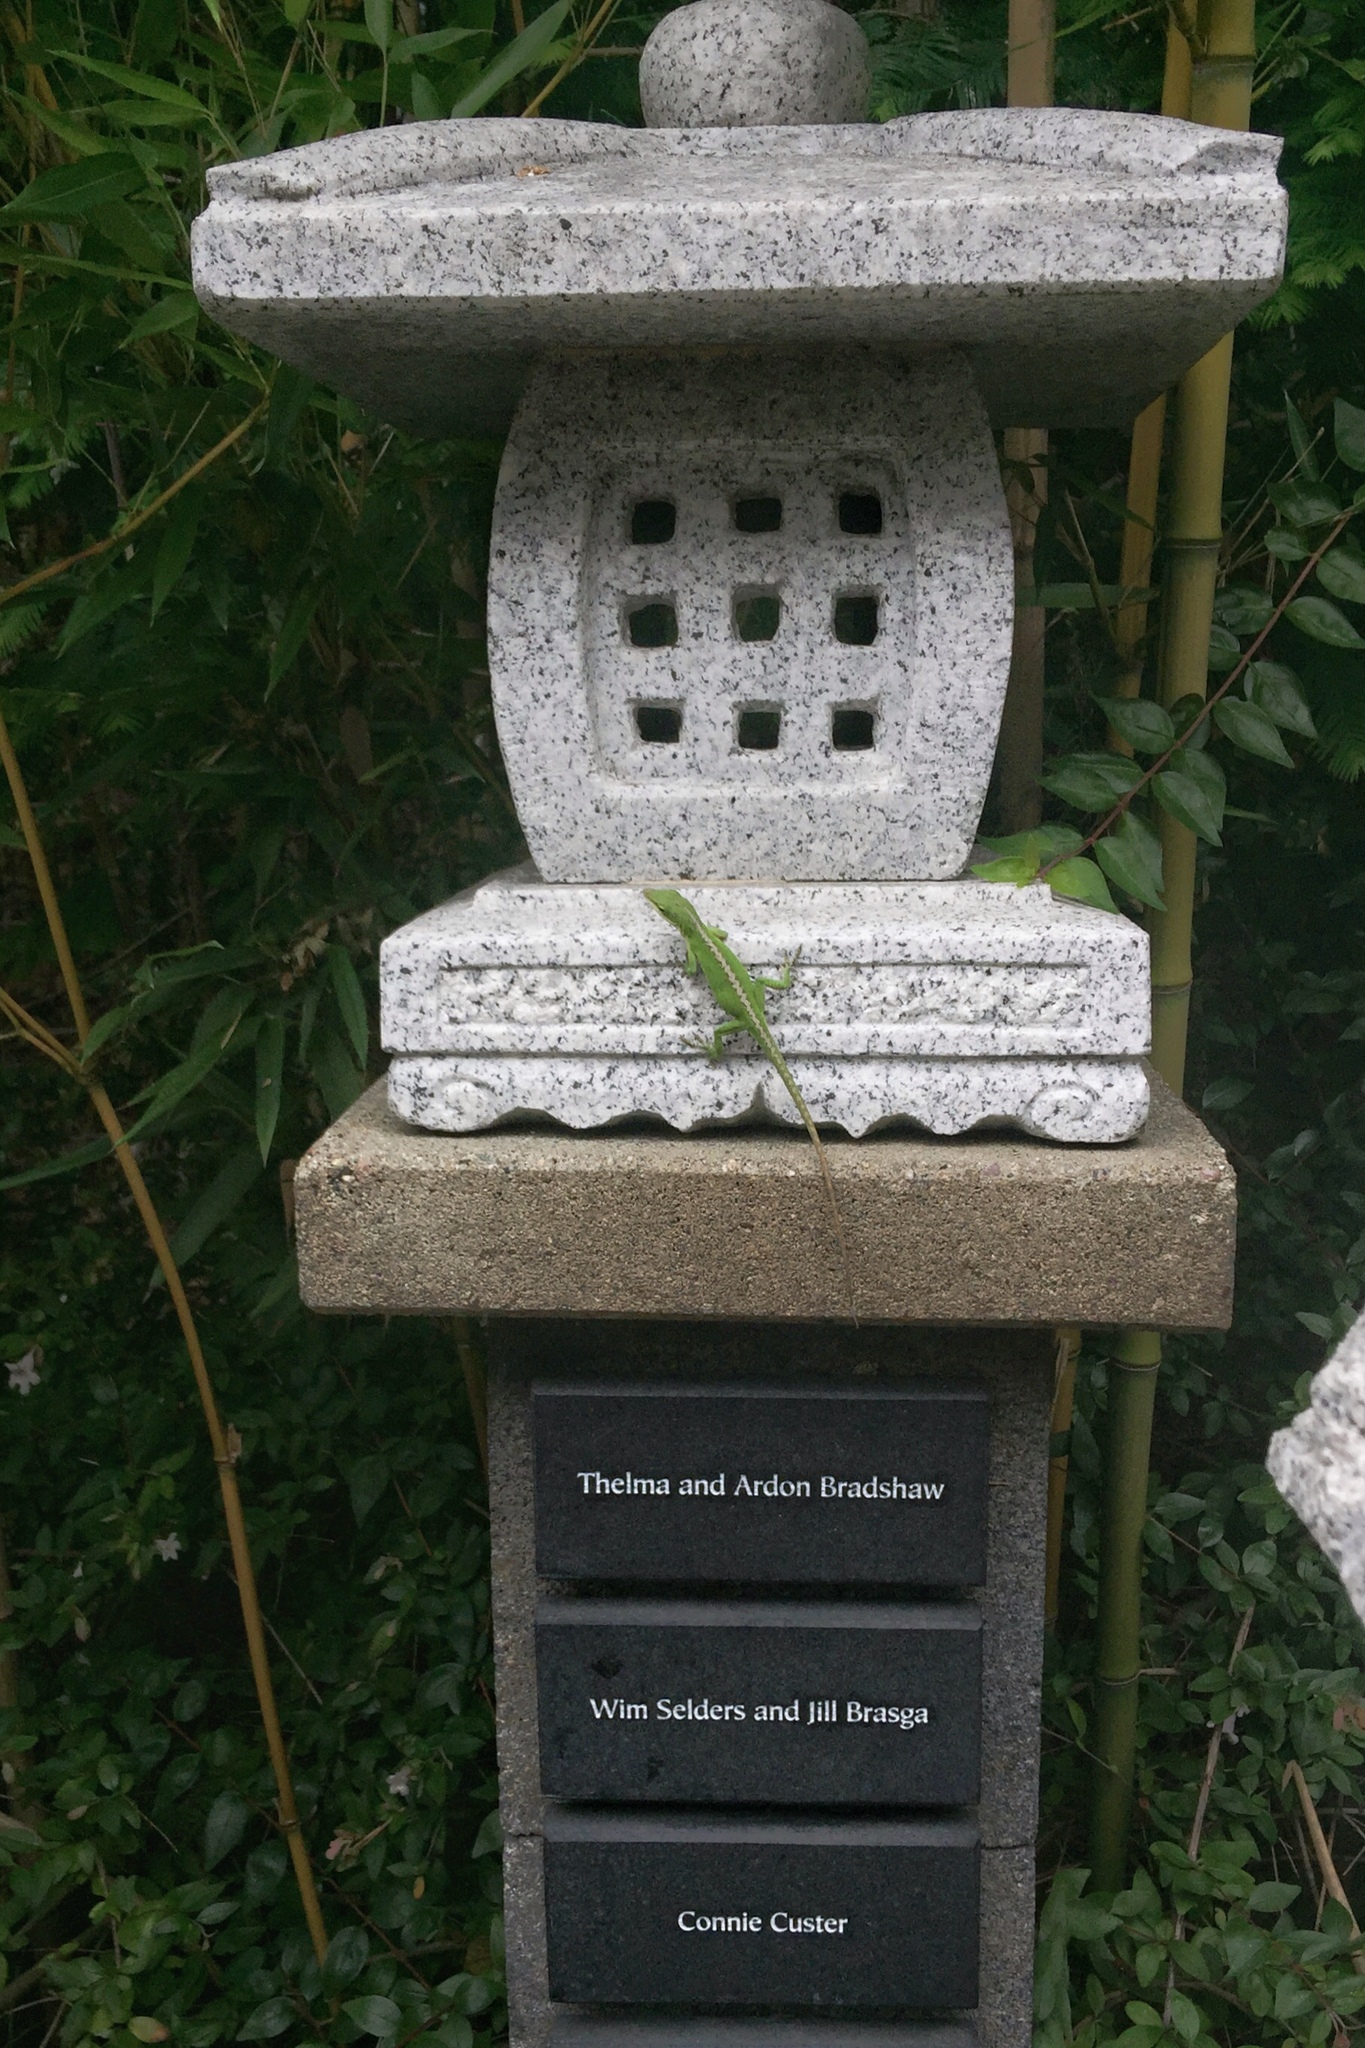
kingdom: Animalia
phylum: Chordata
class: Squamata
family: Dactyloidae
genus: Anolis
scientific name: Anolis carolinensis
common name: Green anole
